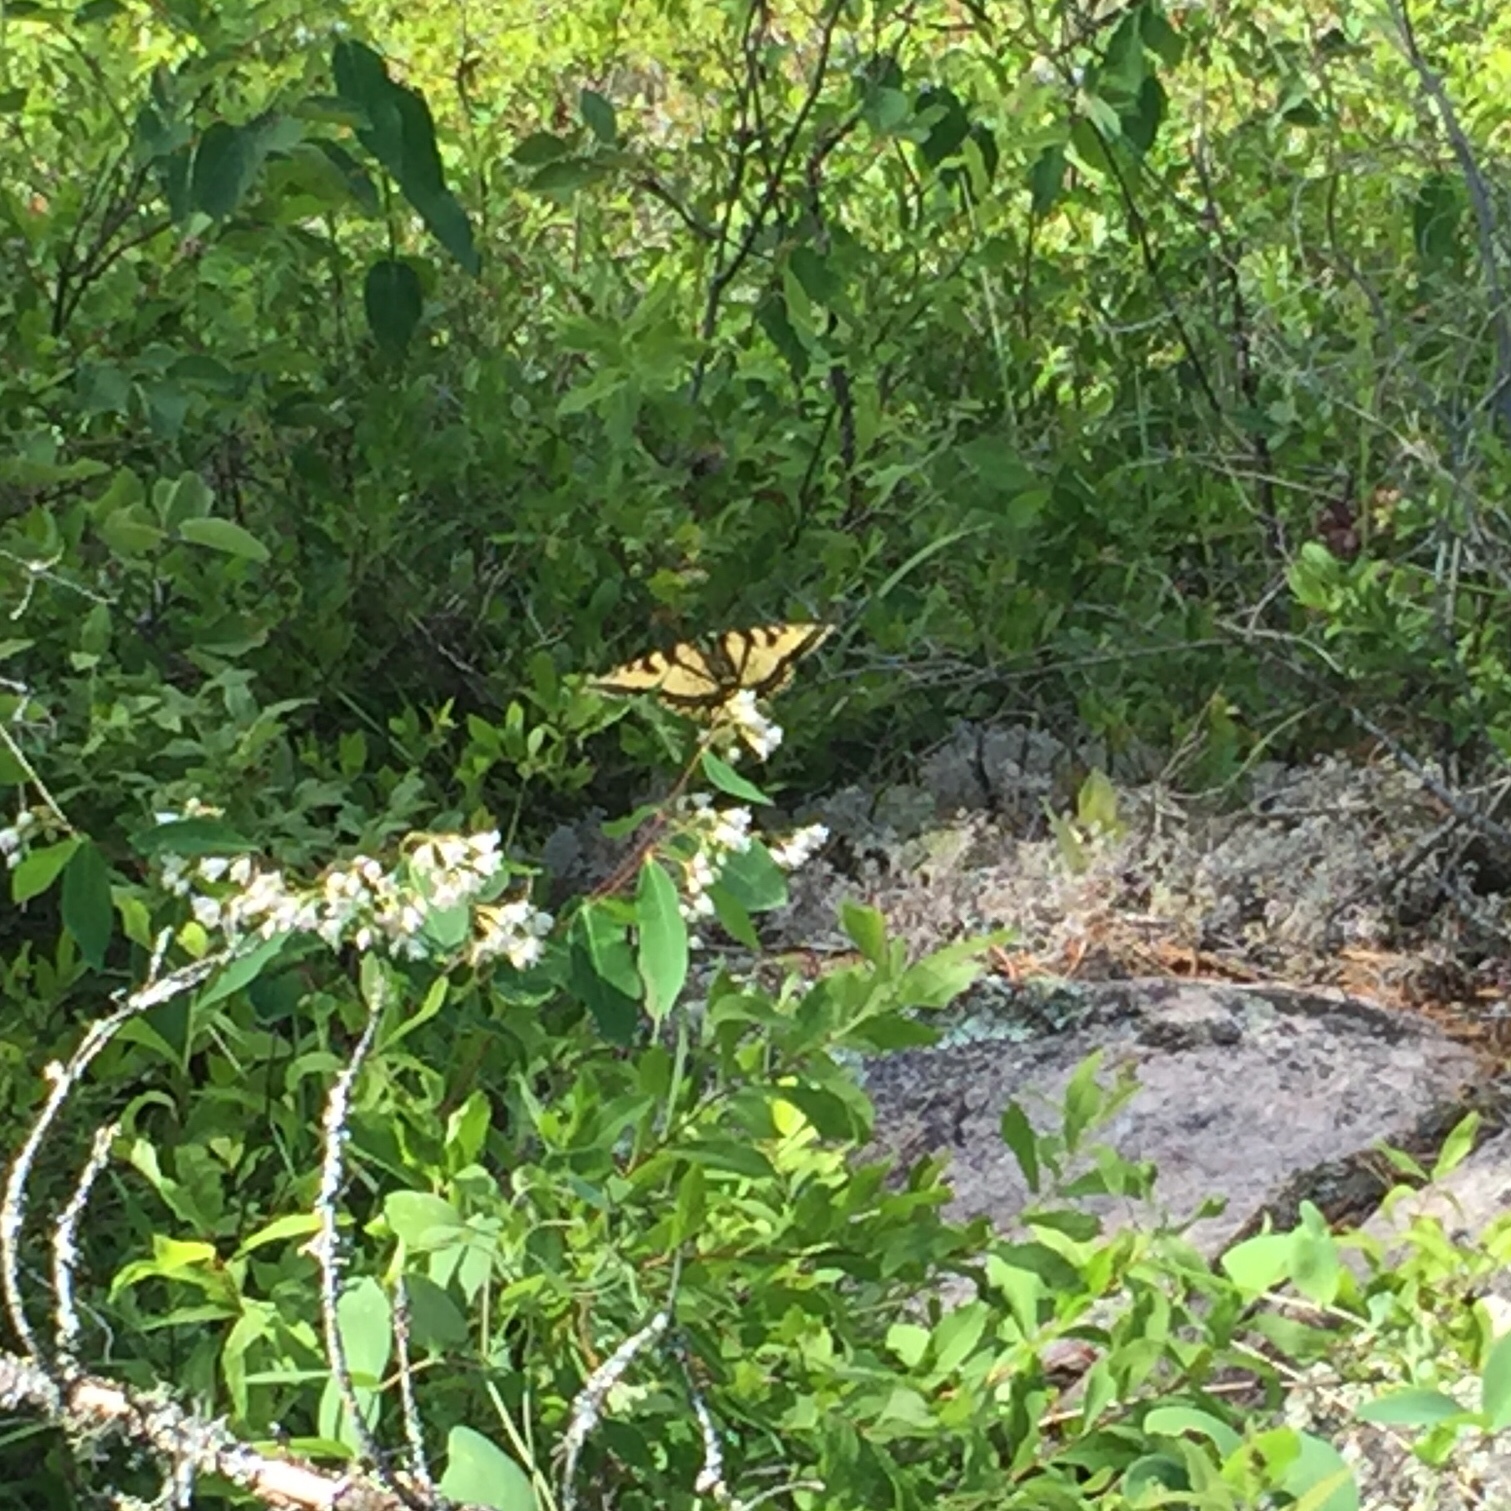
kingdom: Animalia
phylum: Arthropoda
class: Insecta
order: Lepidoptera
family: Papilionidae
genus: Papilio
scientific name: Papilio canadensis
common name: Canadian tiger swallowtail
